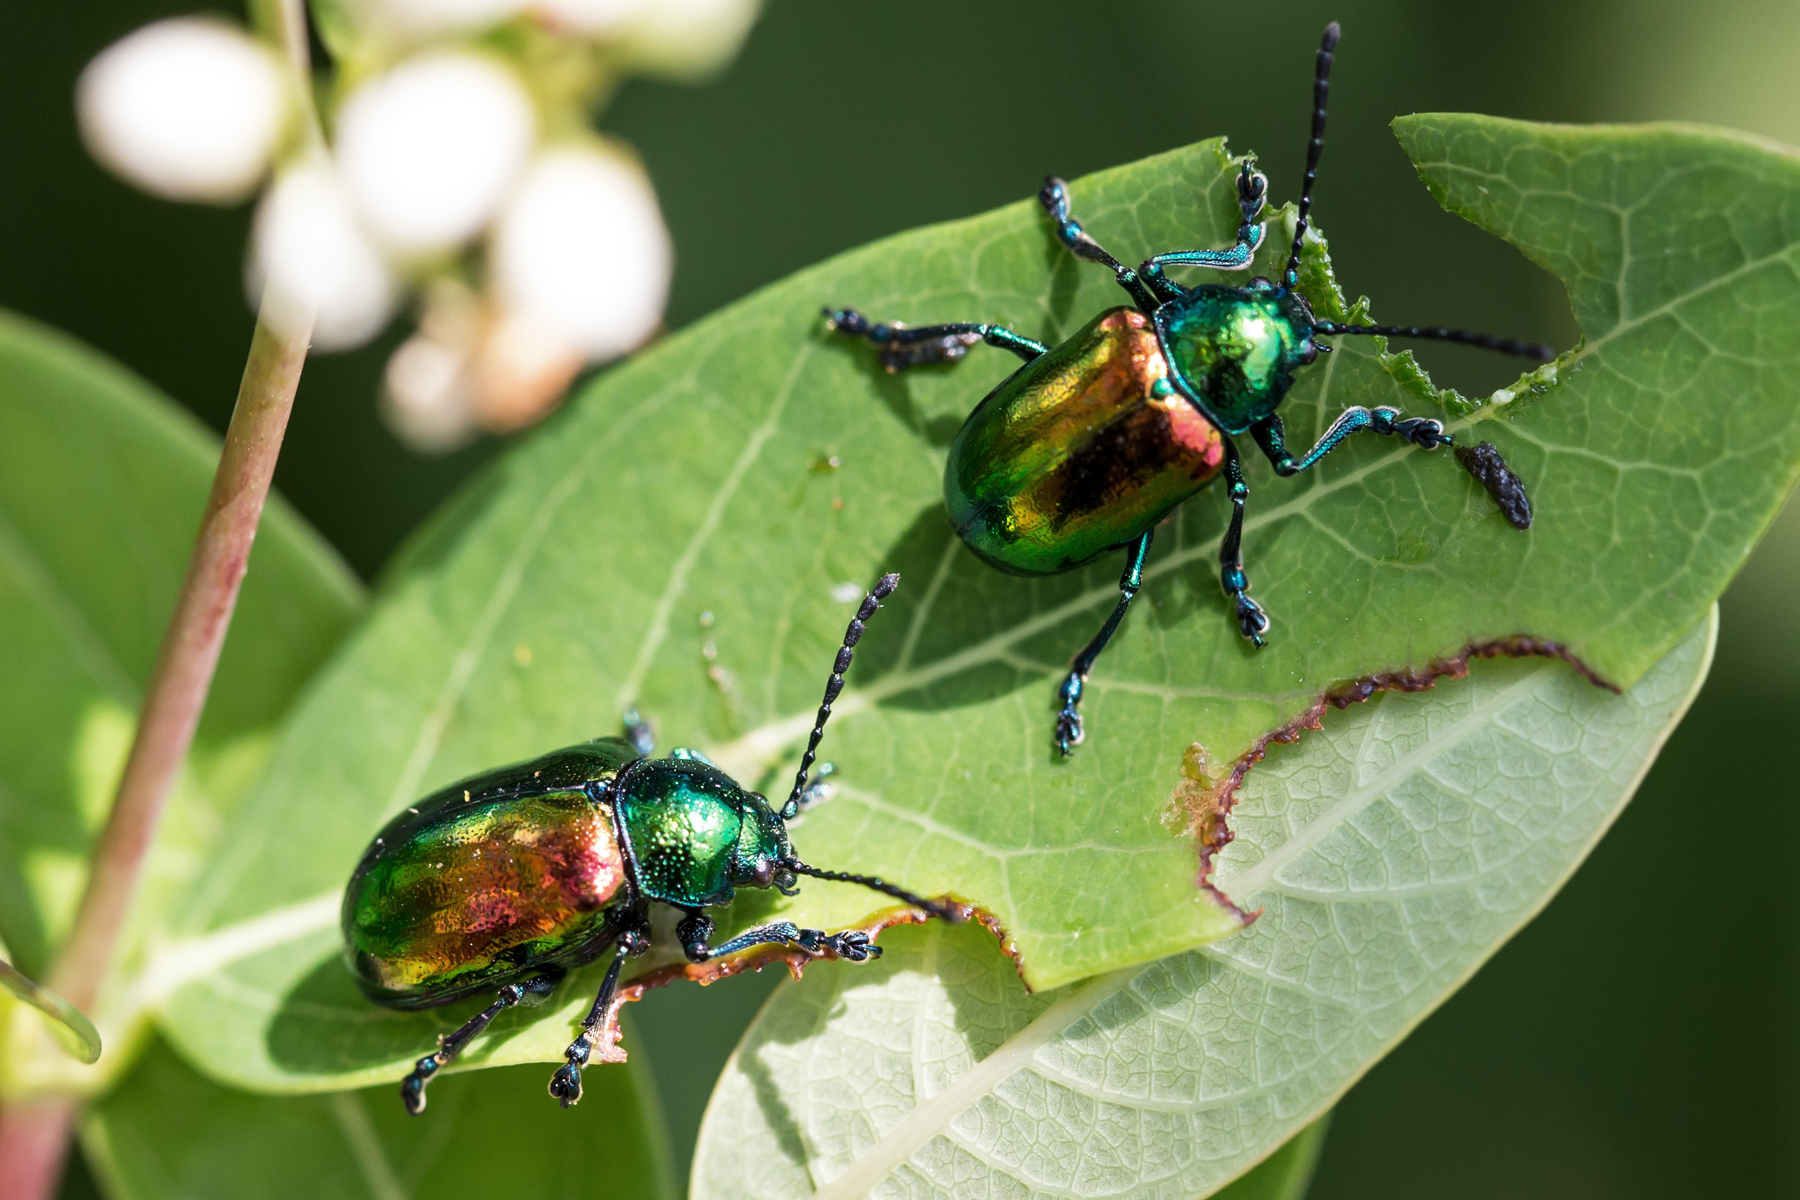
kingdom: Animalia
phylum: Arthropoda
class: Insecta
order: Coleoptera
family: Chrysomelidae
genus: Chrysochus
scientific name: Chrysochus auratus
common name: Dogbane leaf beetle
